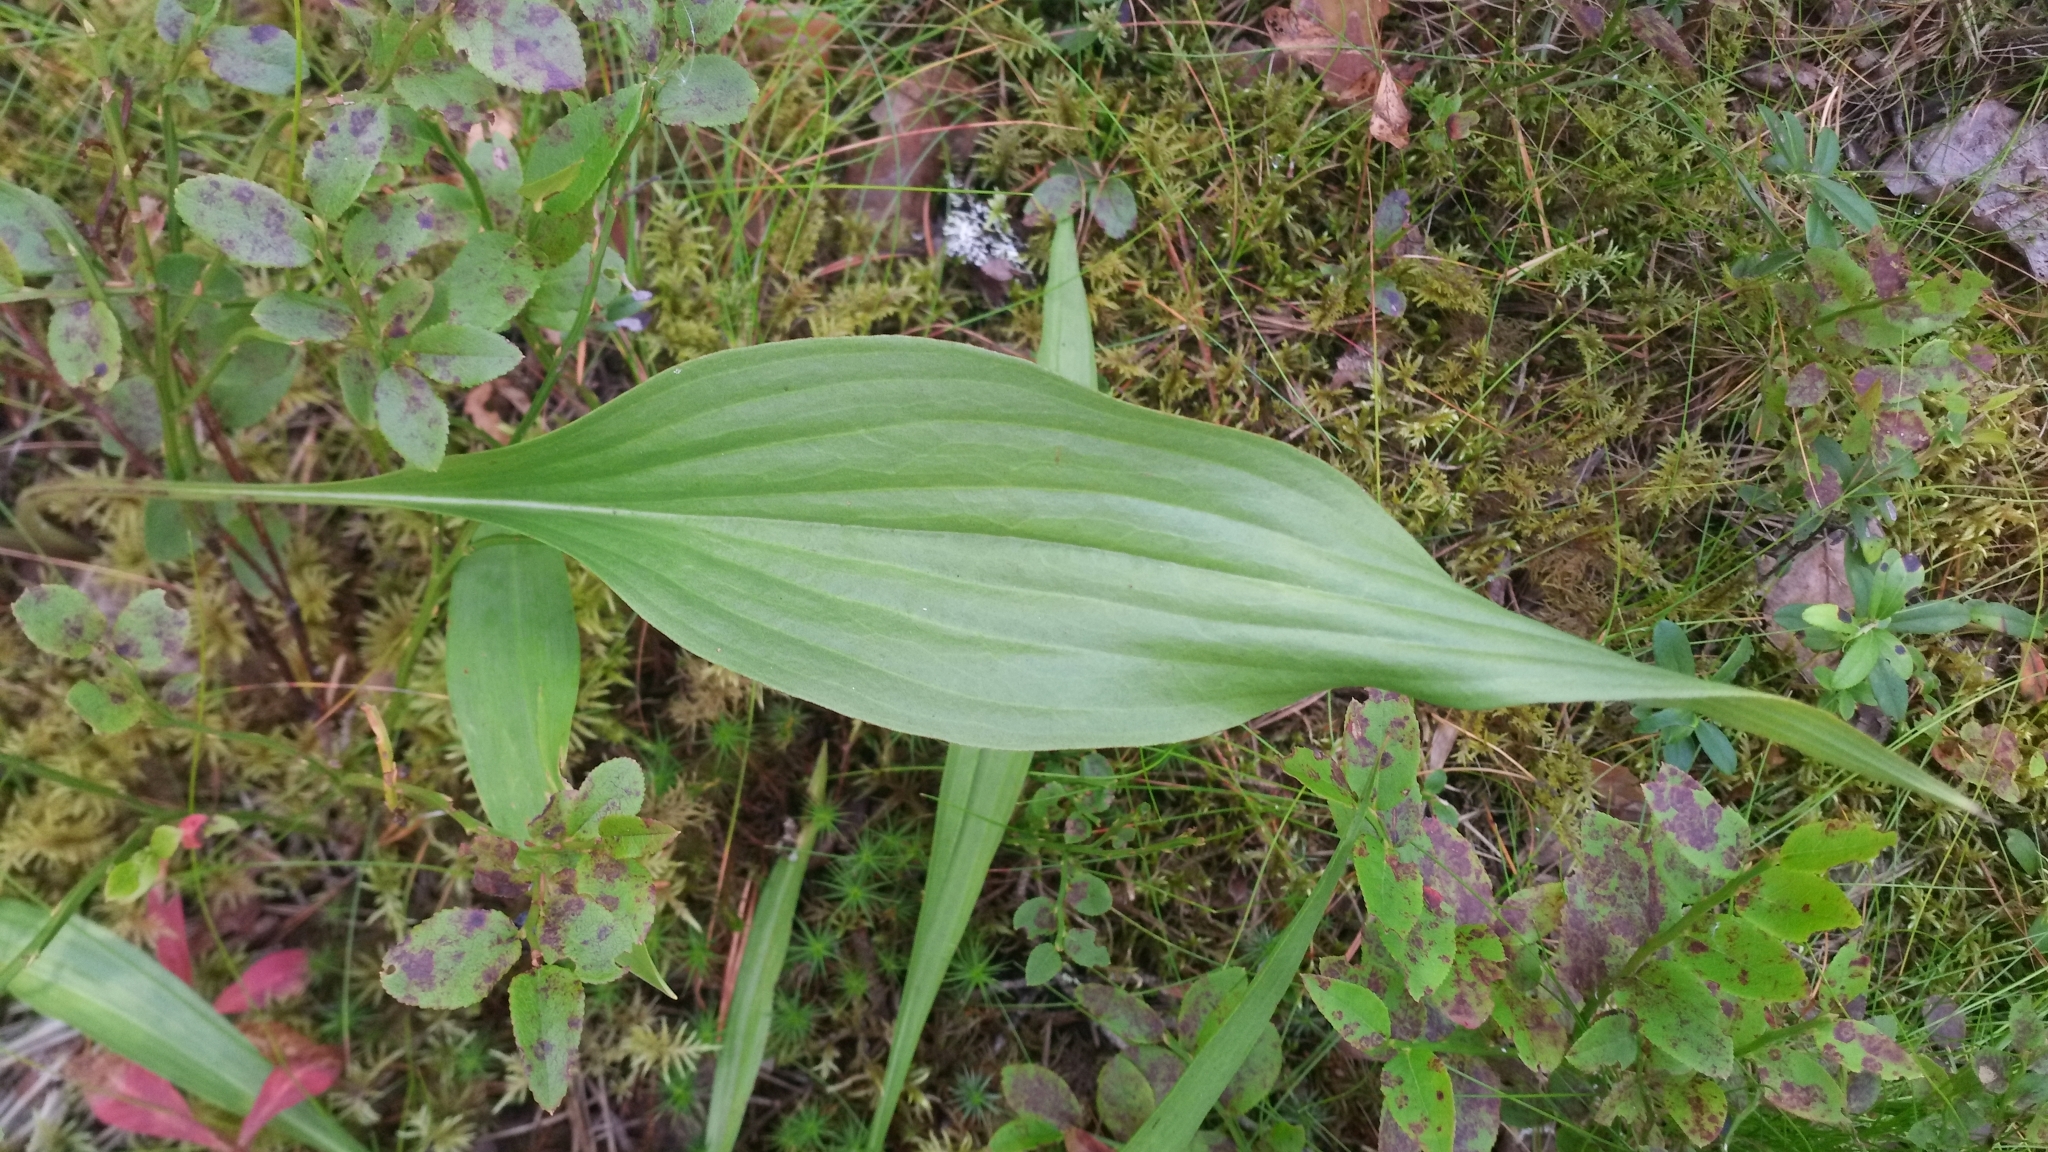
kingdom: Plantae
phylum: Tracheophyta
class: Magnoliopsida
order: Asterales
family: Asteraceae
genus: Scorzonera
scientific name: Scorzonera humilis
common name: Viper's-grass
